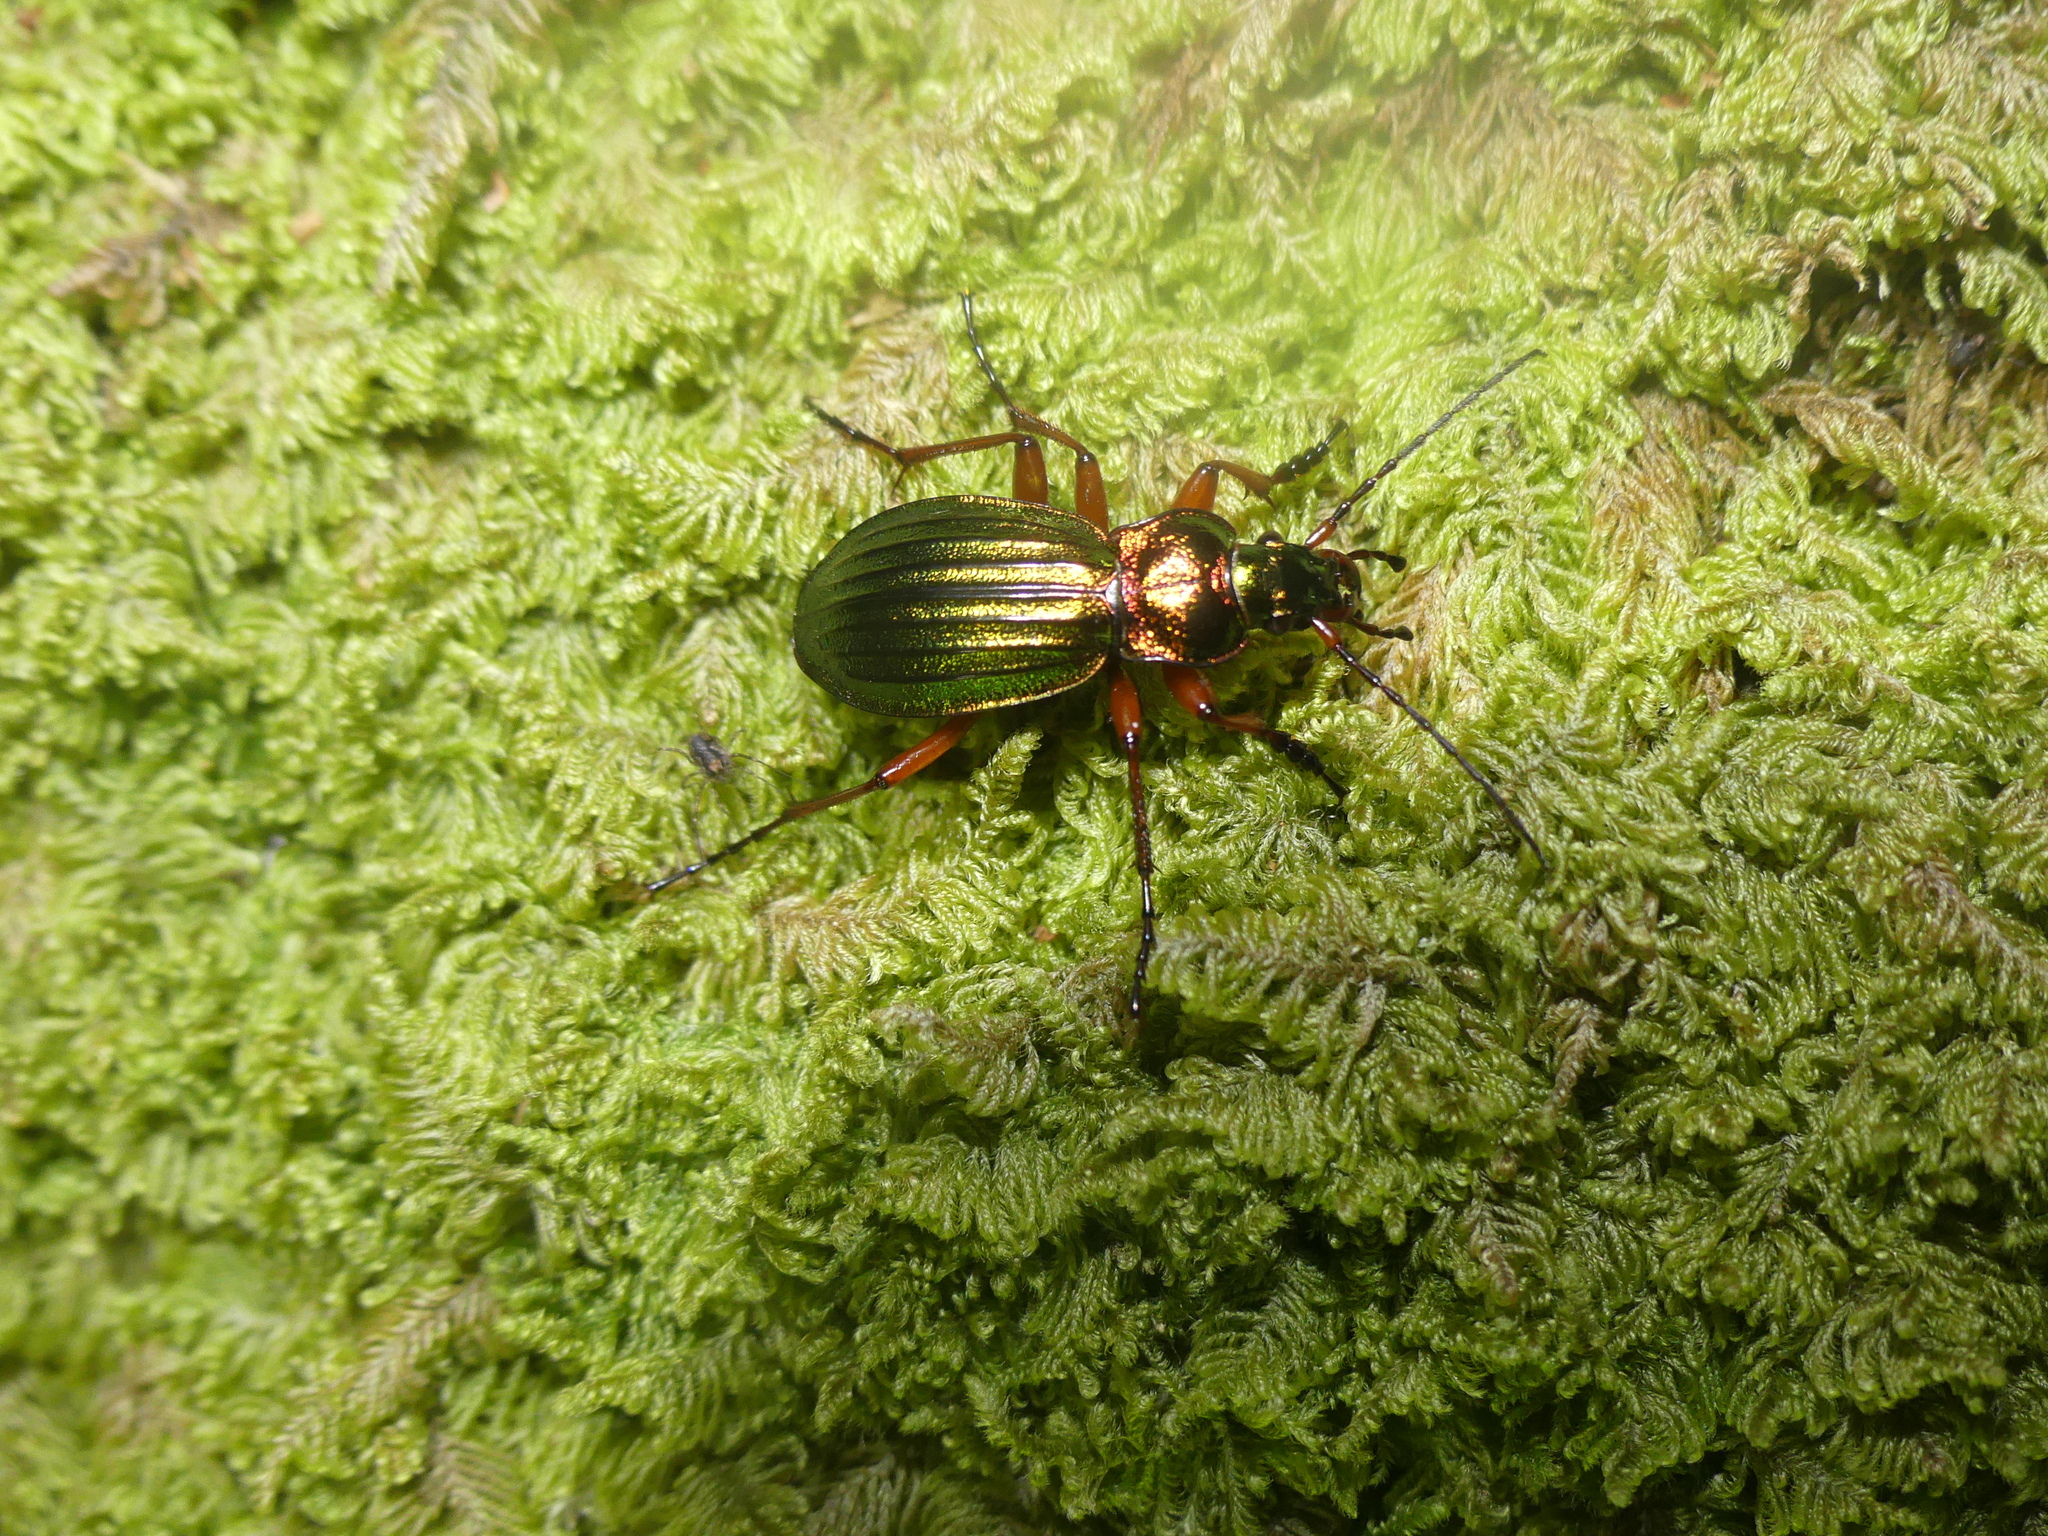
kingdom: Animalia
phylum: Arthropoda
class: Insecta
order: Coleoptera
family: Carabidae
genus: Carabus
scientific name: Carabus auronitens
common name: Carabus auronitens
